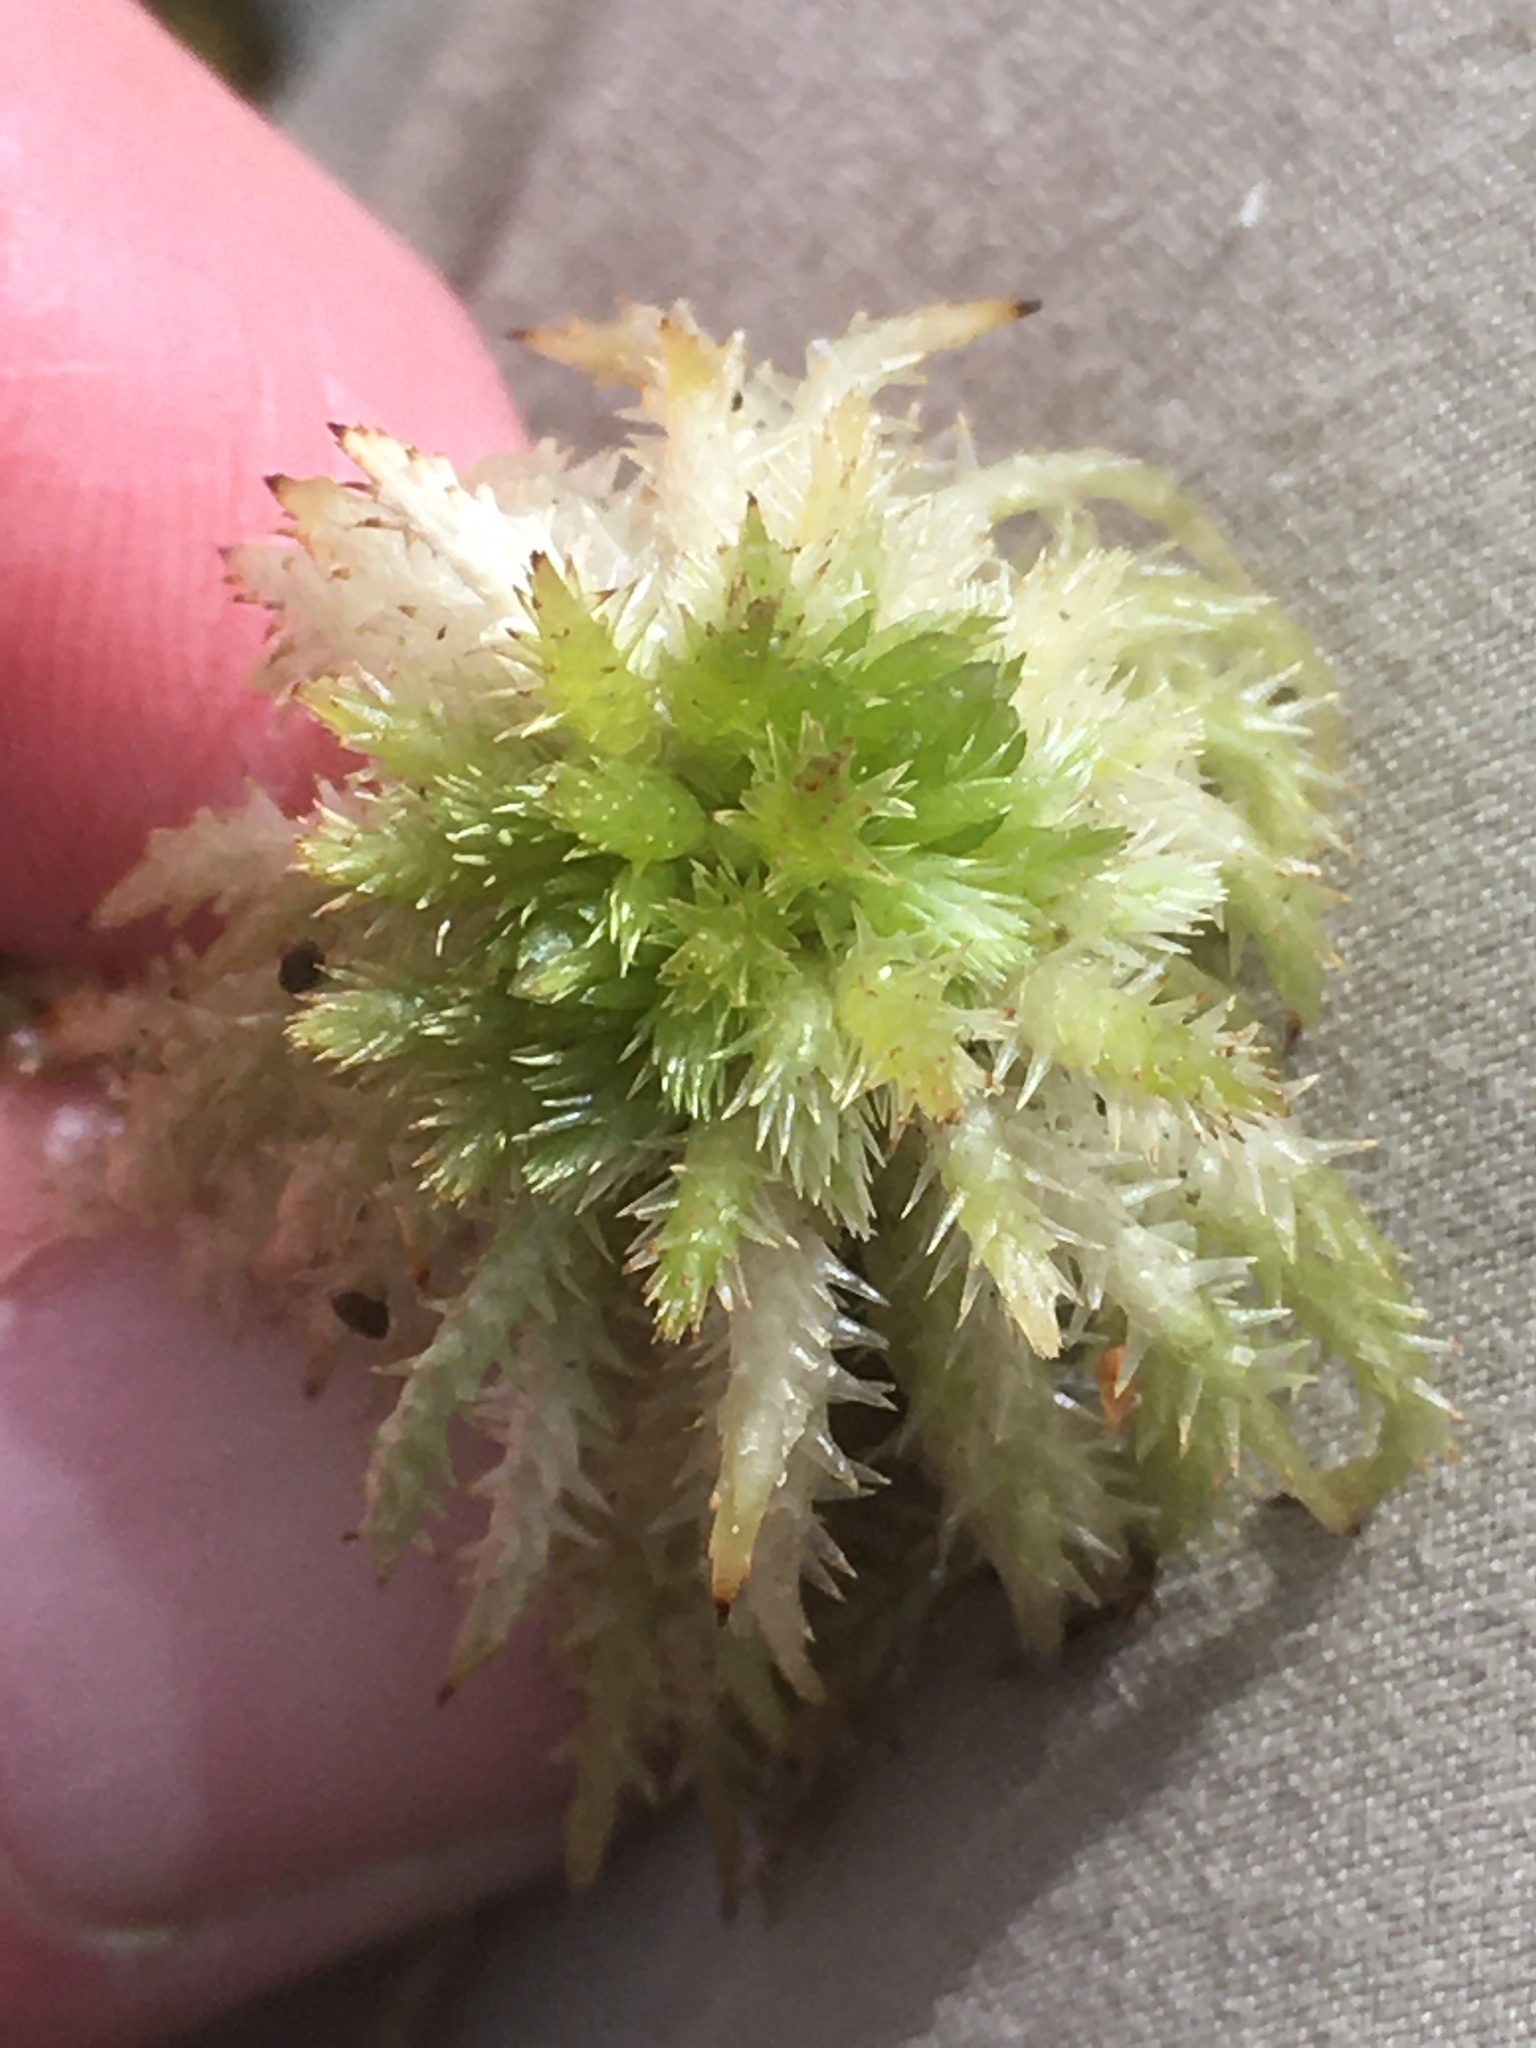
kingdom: Plantae
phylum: Bryophyta
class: Sphagnopsida
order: Sphagnales
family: Sphagnaceae
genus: Sphagnum
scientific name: Sphagnum squarrosum
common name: Shaggy peat moss
